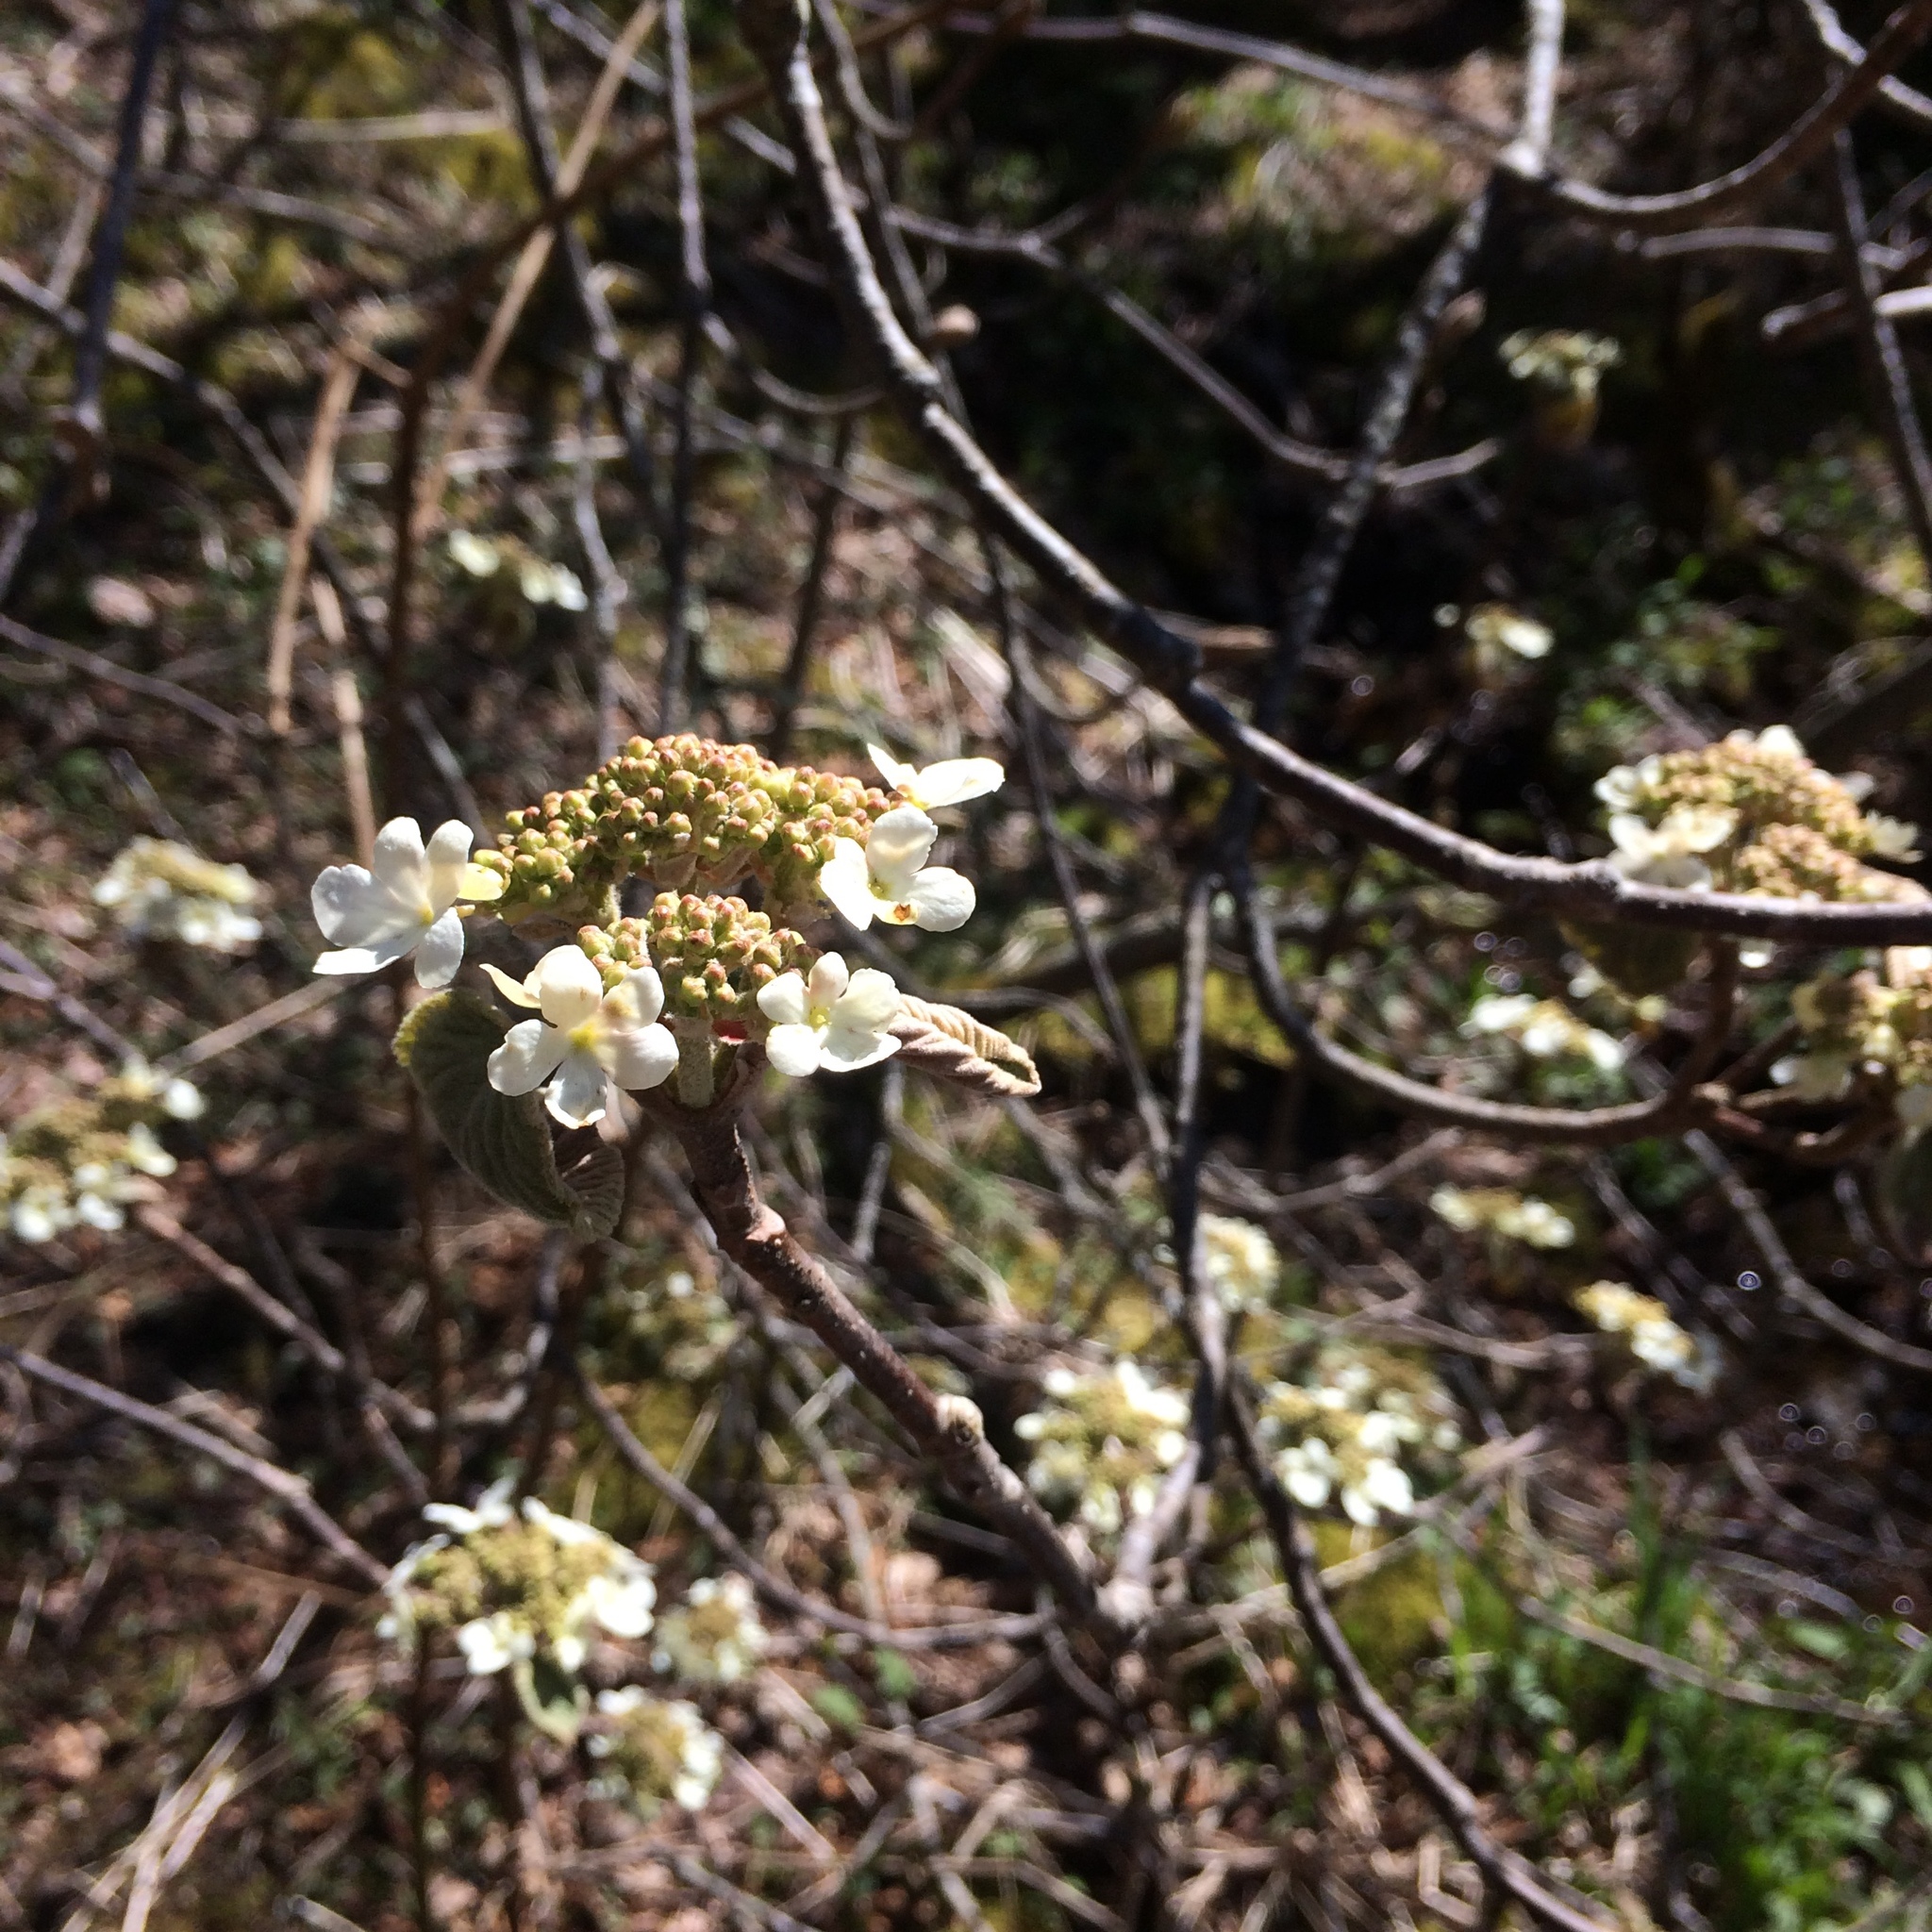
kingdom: Plantae
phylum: Tracheophyta
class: Magnoliopsida
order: Dipsacales
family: Viburnaceae
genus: Viburnum
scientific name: Viburnum lantanoides
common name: Hobblebush
